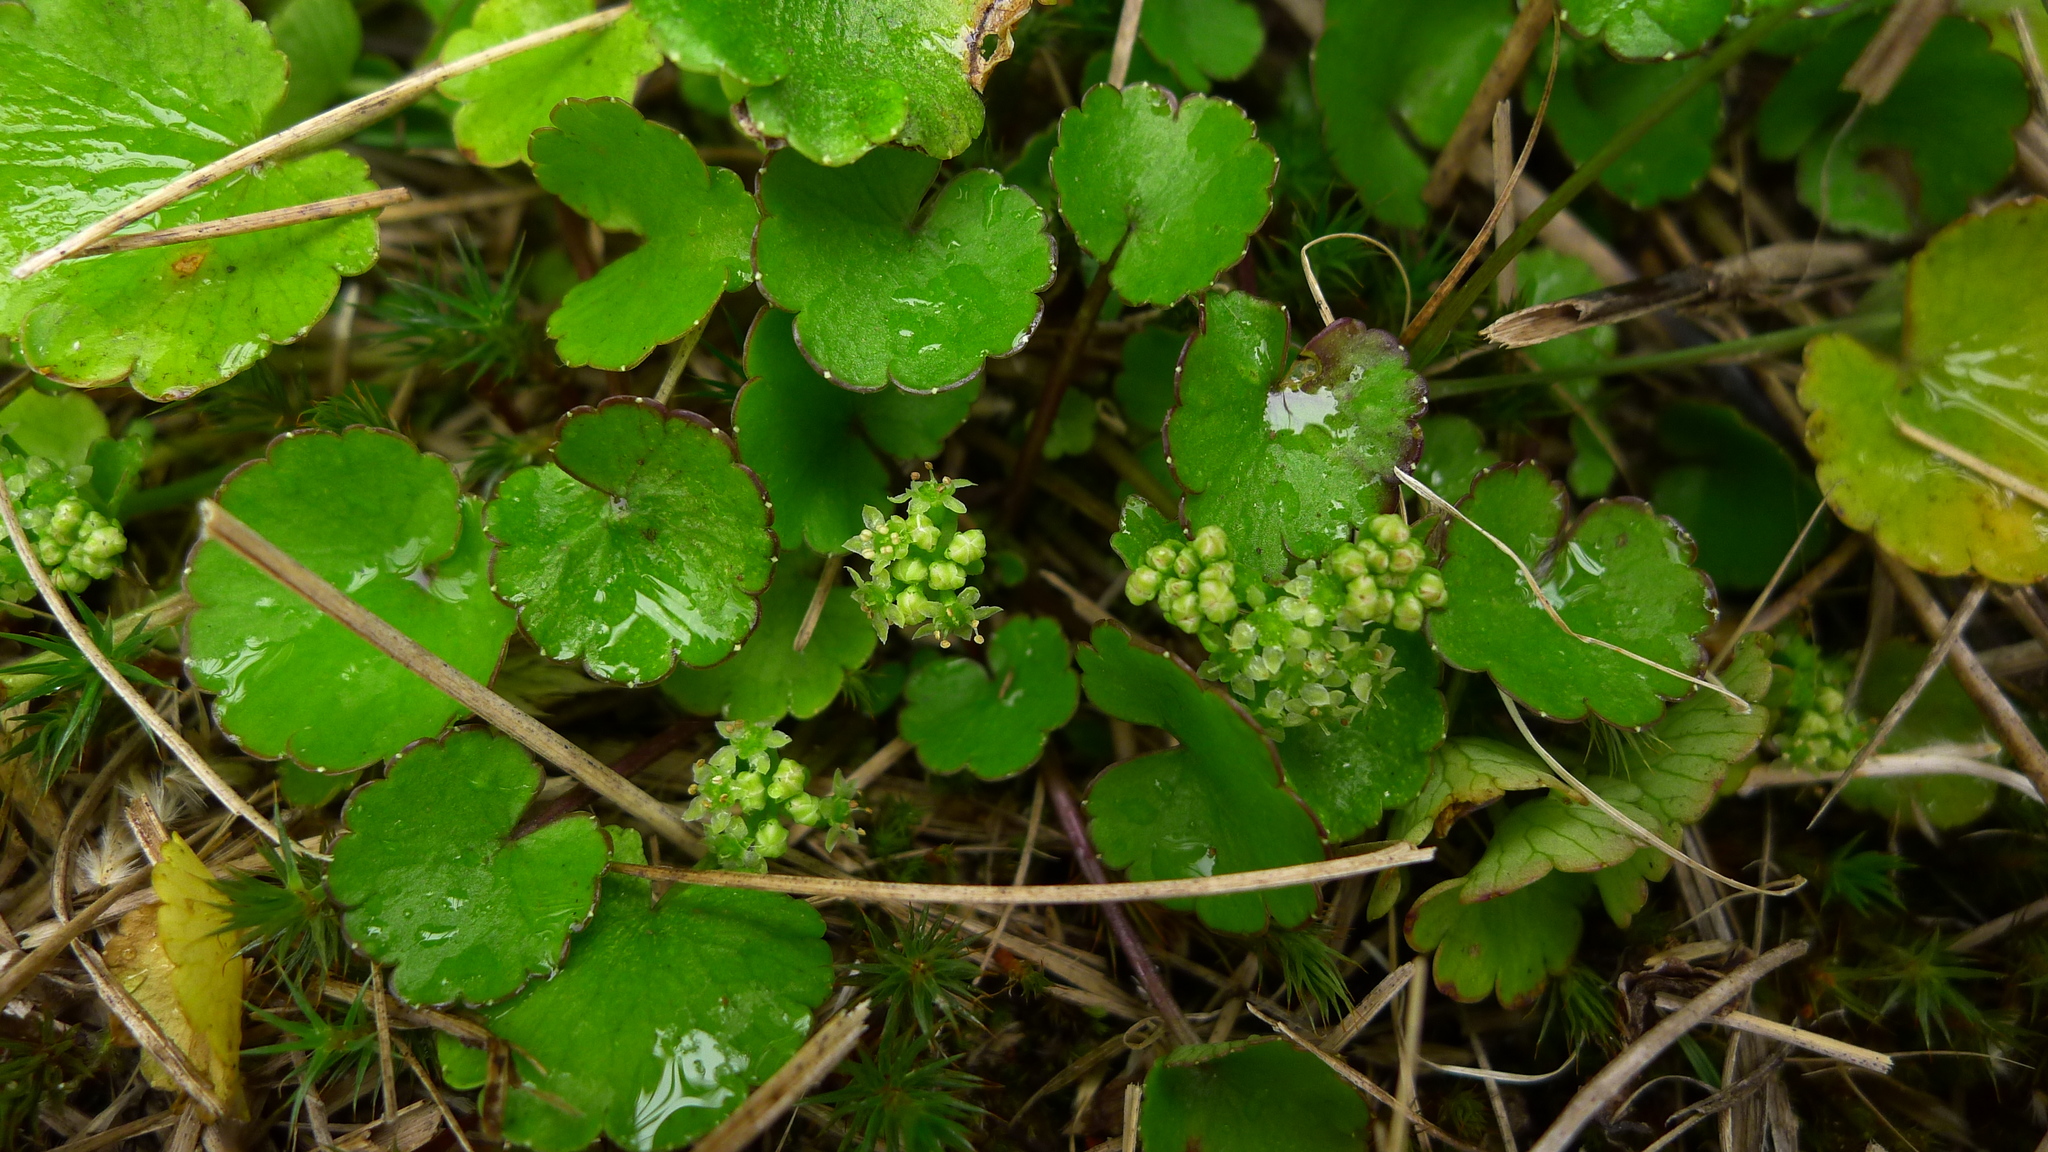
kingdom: Plantae
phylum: Tracheophyta
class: Magnoliopsida
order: Apiales
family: Apiaceae
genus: Azorella
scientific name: Azorella haastii
